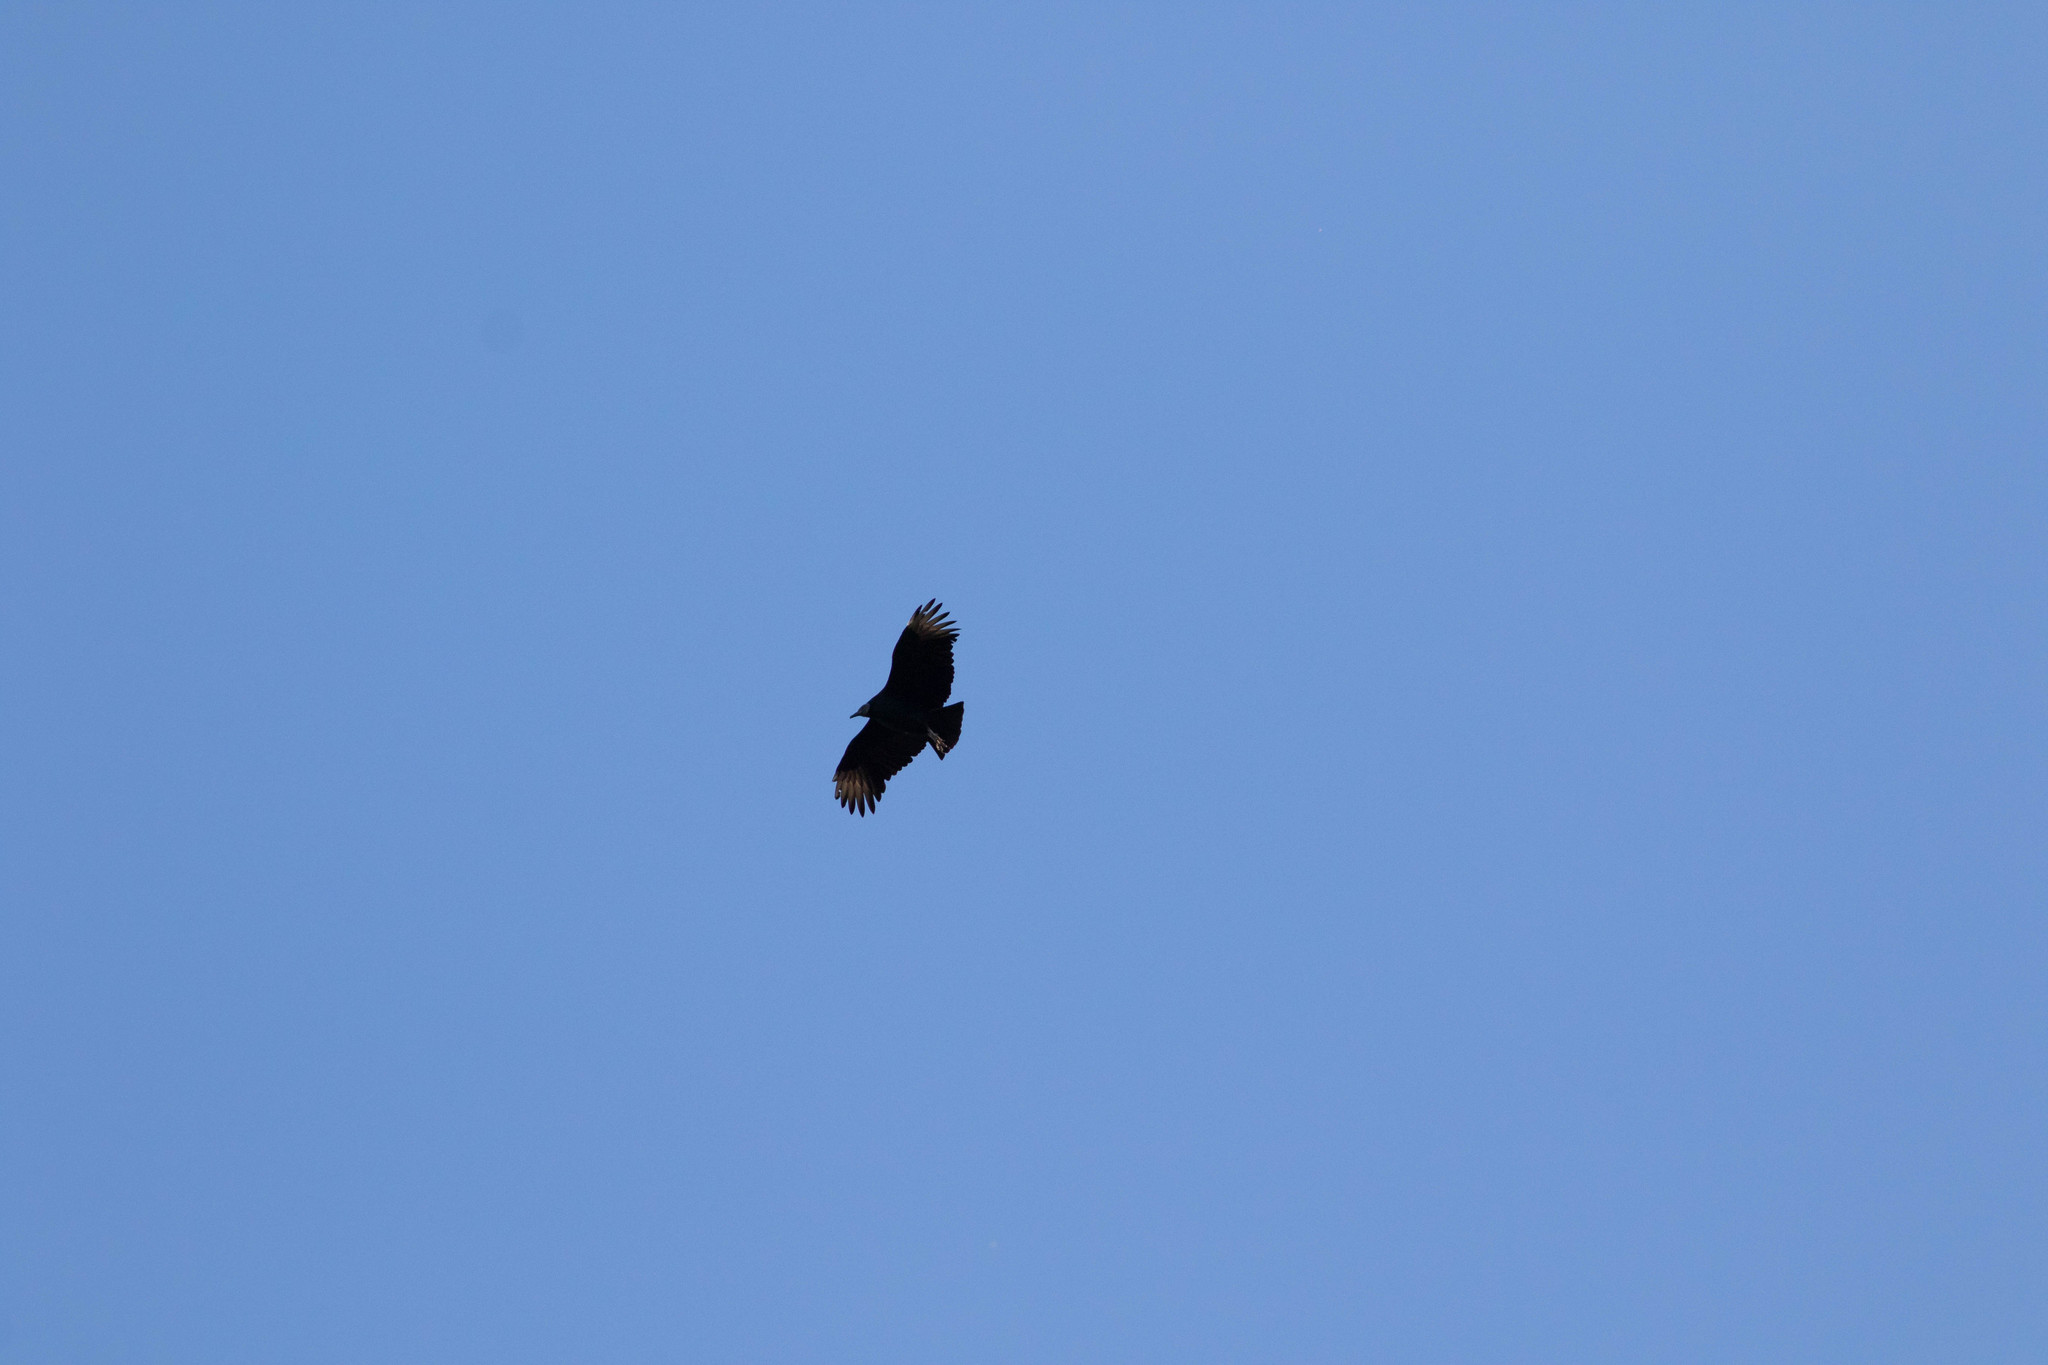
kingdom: Animalia
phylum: Chordata
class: Aves
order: Accipitriformes
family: Cathartidae
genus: Coragyps
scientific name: Coragyps atratus
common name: Black vulture
